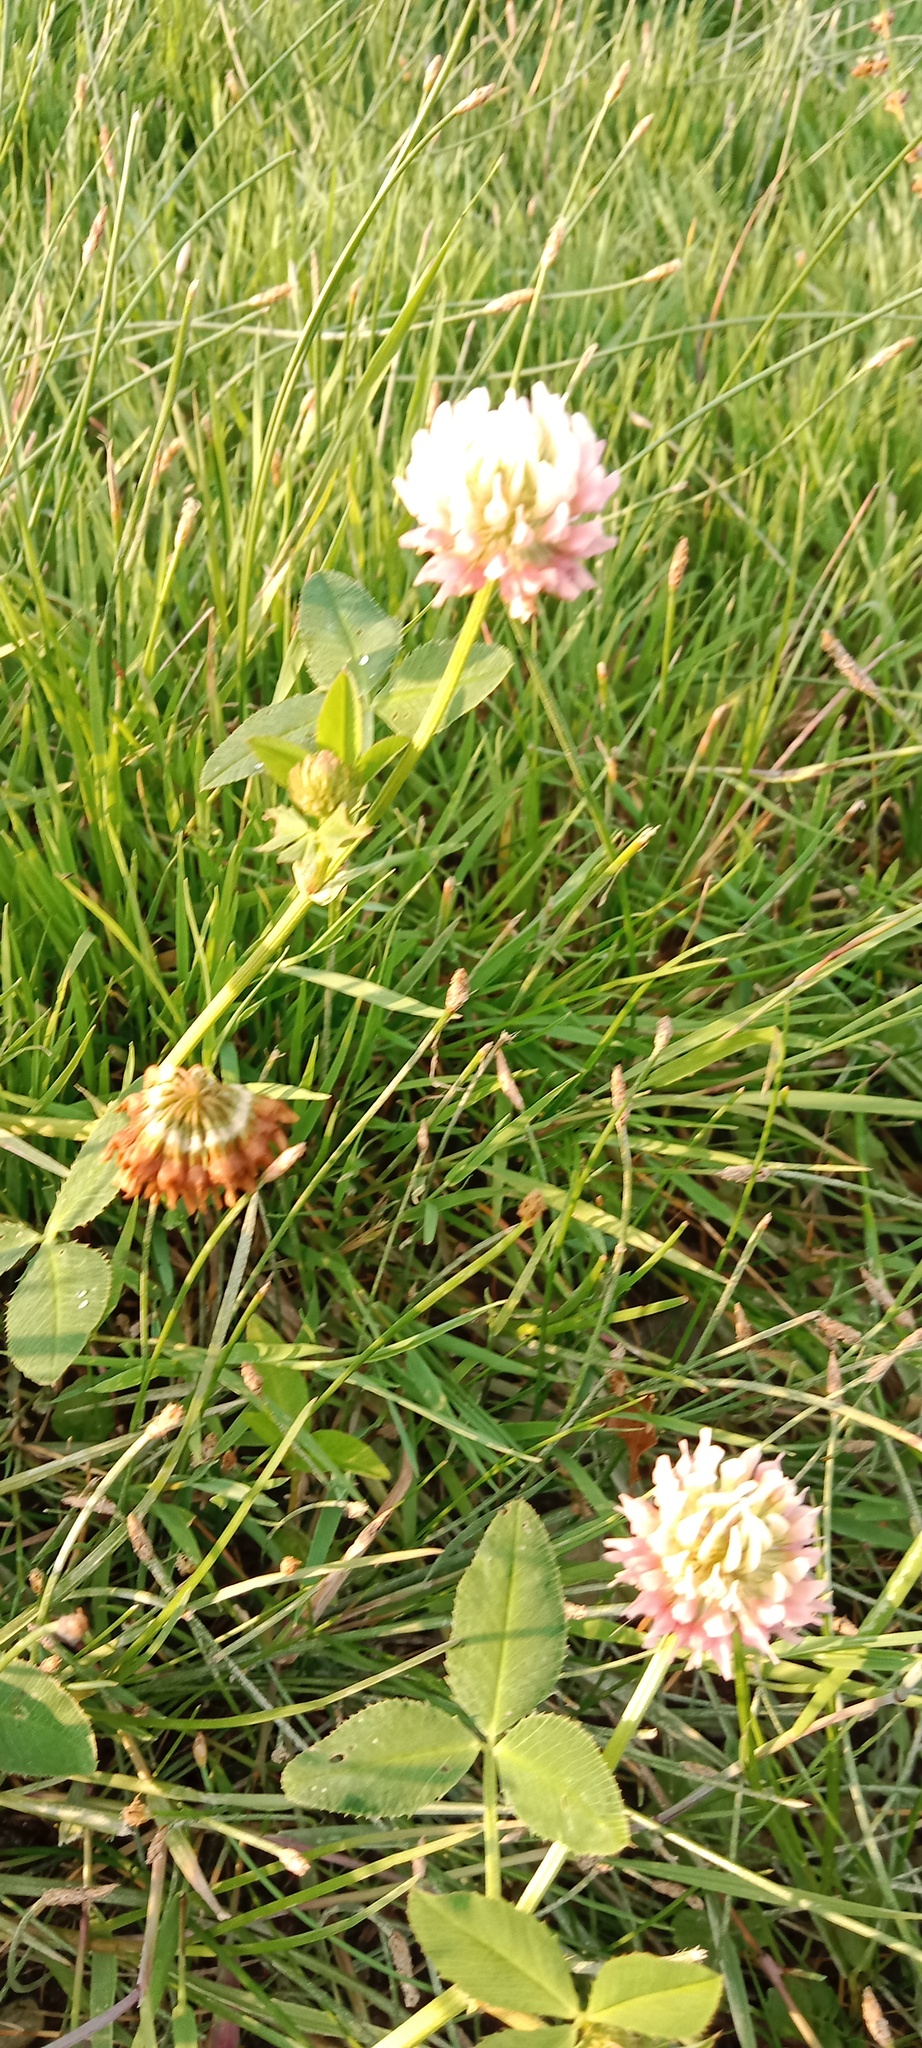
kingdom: Plantae
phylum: Tracheophyta
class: Magnoliopsida
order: Fabales
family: Fabaceae
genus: Trifolium
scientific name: Trifolium hybridum
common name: Alsike clover
